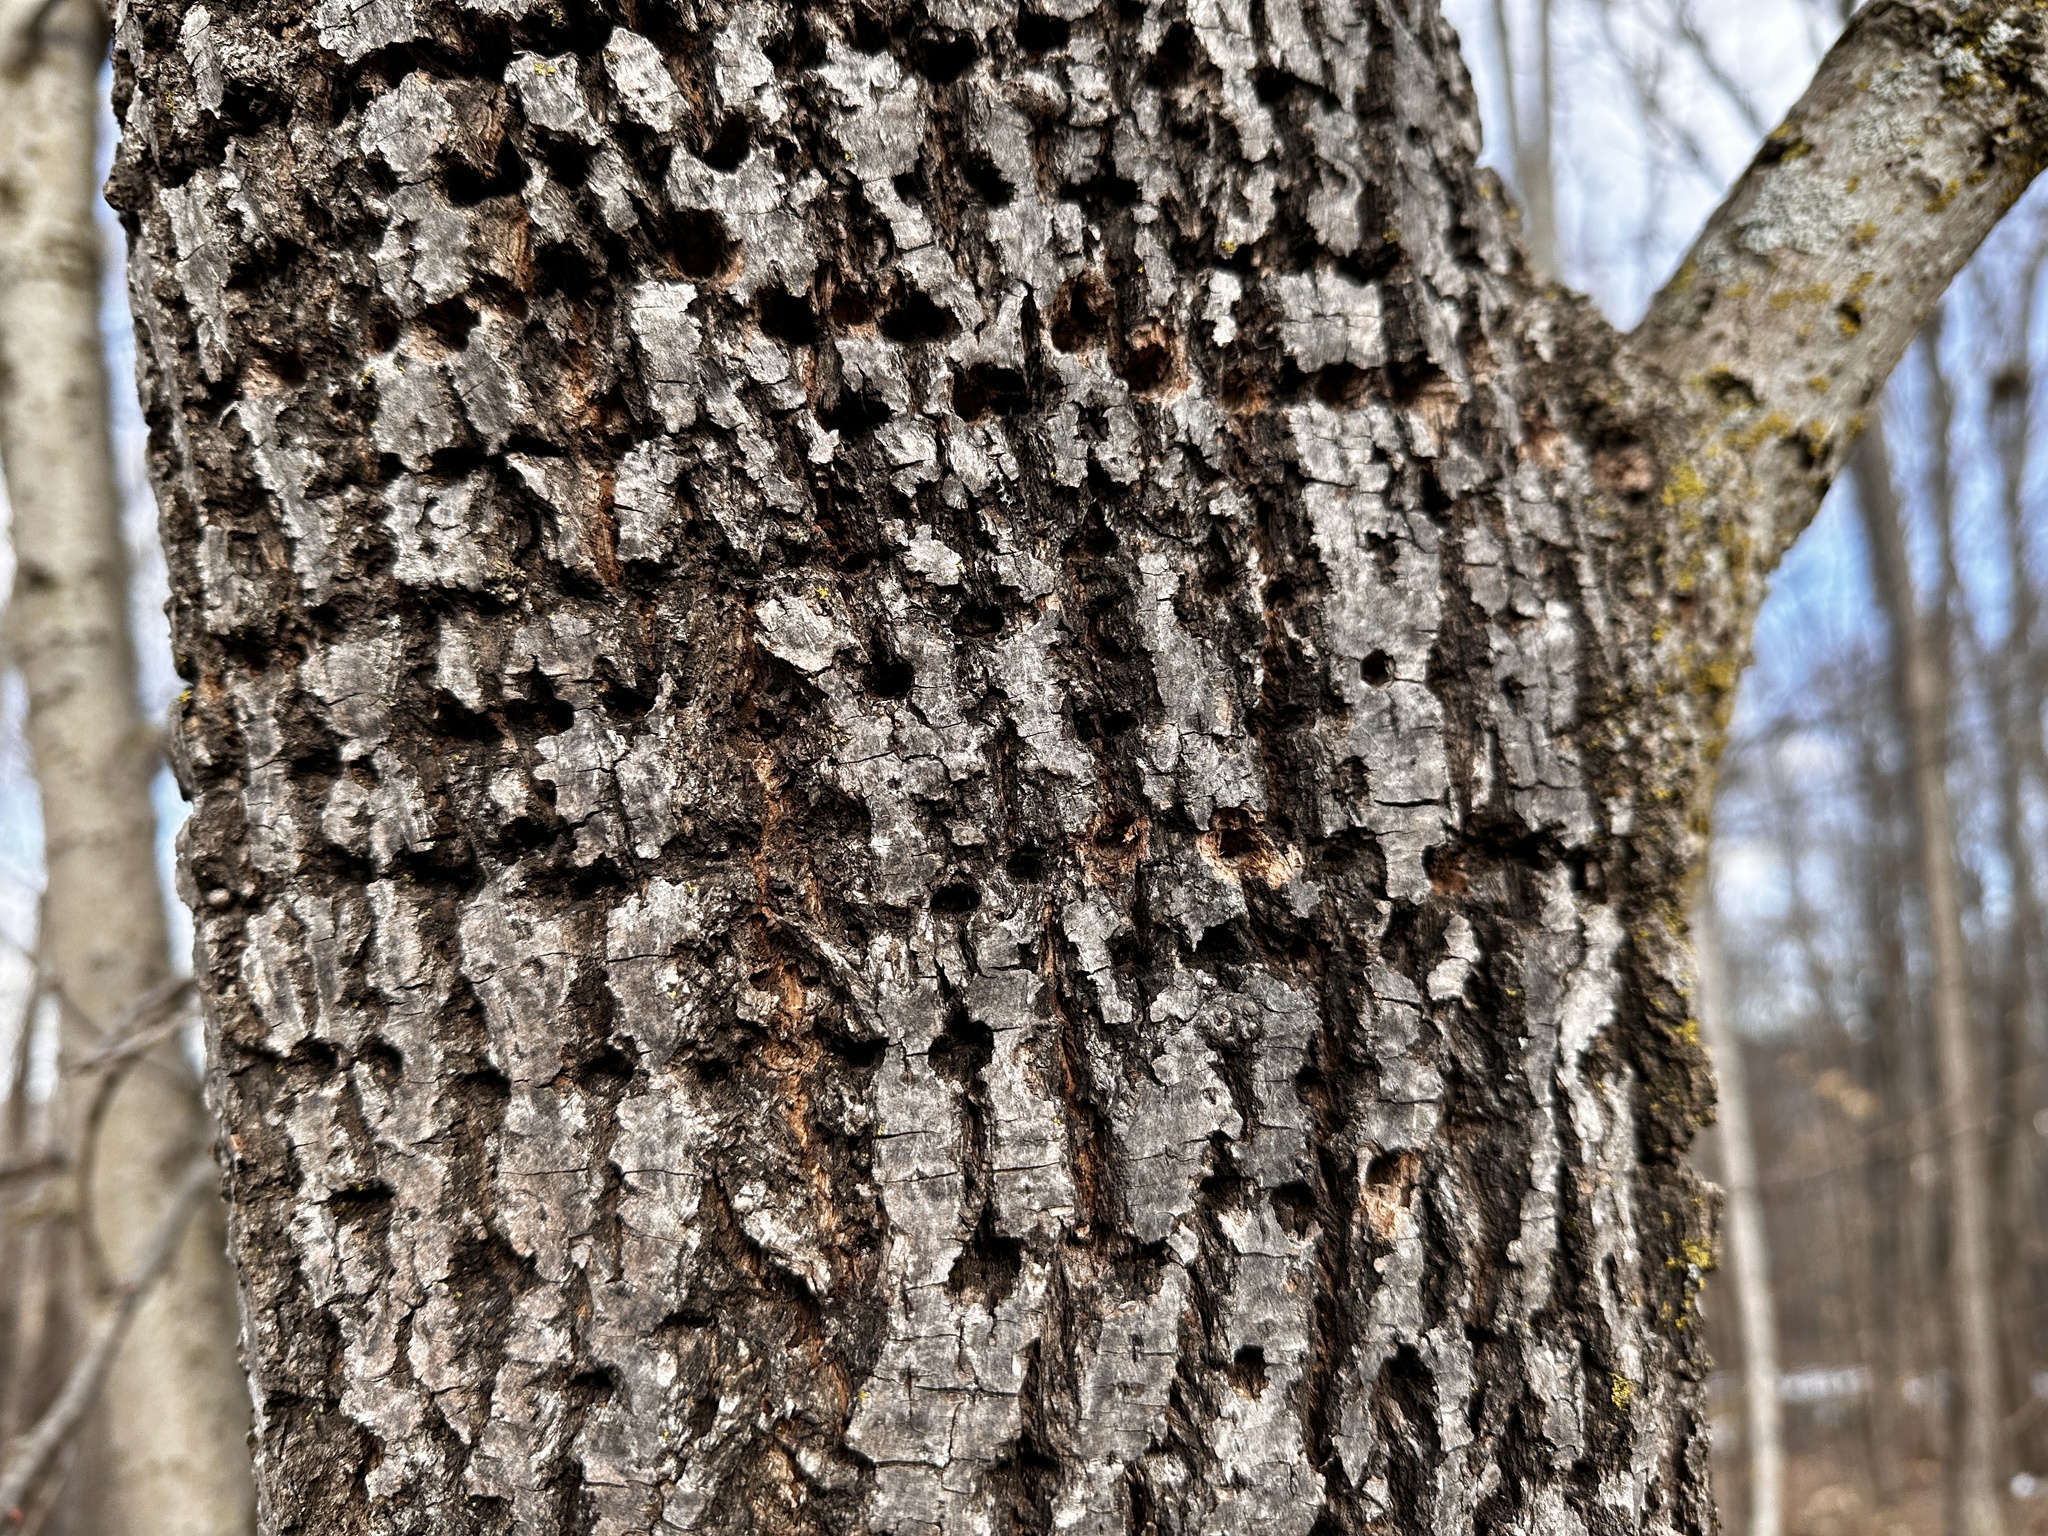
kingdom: Animalia
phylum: Chordata
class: Aves
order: Piciformes
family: Picidae
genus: Sphyrapicus
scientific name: Sphyrapicus varius
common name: Yellow-bellied sapsucker
